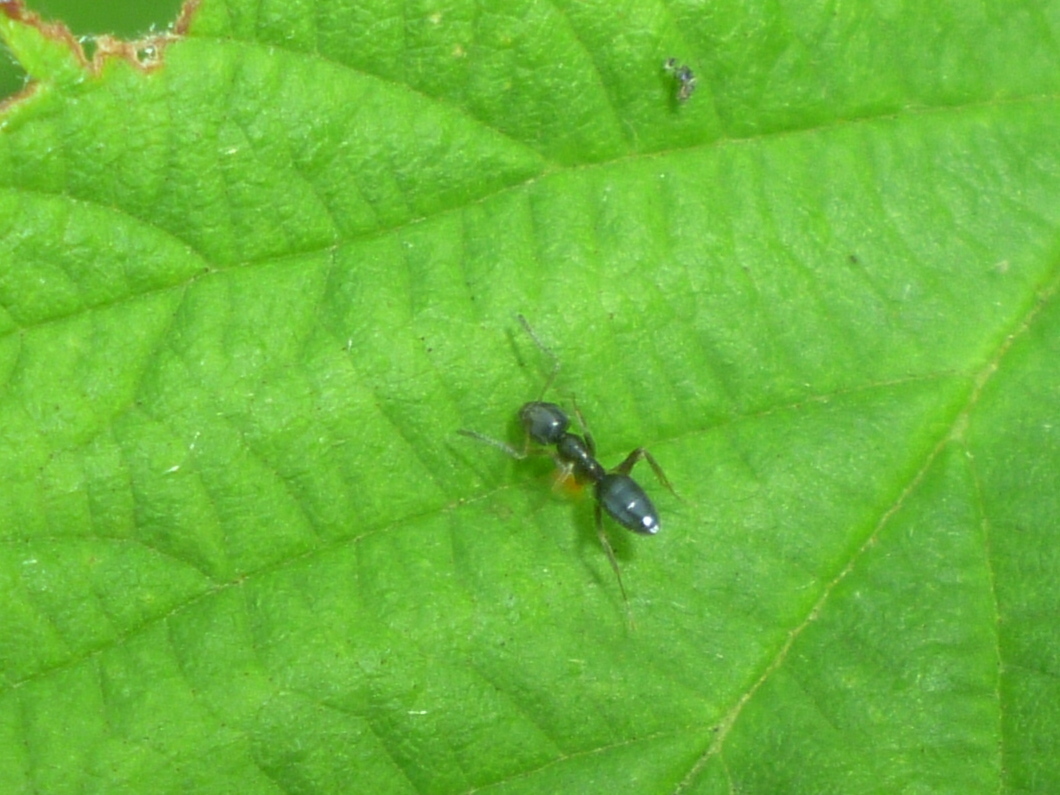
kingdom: Animalia
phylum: Arthropoda
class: Insecta
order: Hymenoptera
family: Formicidae
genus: Tapinoma
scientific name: Tapinoma sessile
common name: Odorous house ant
